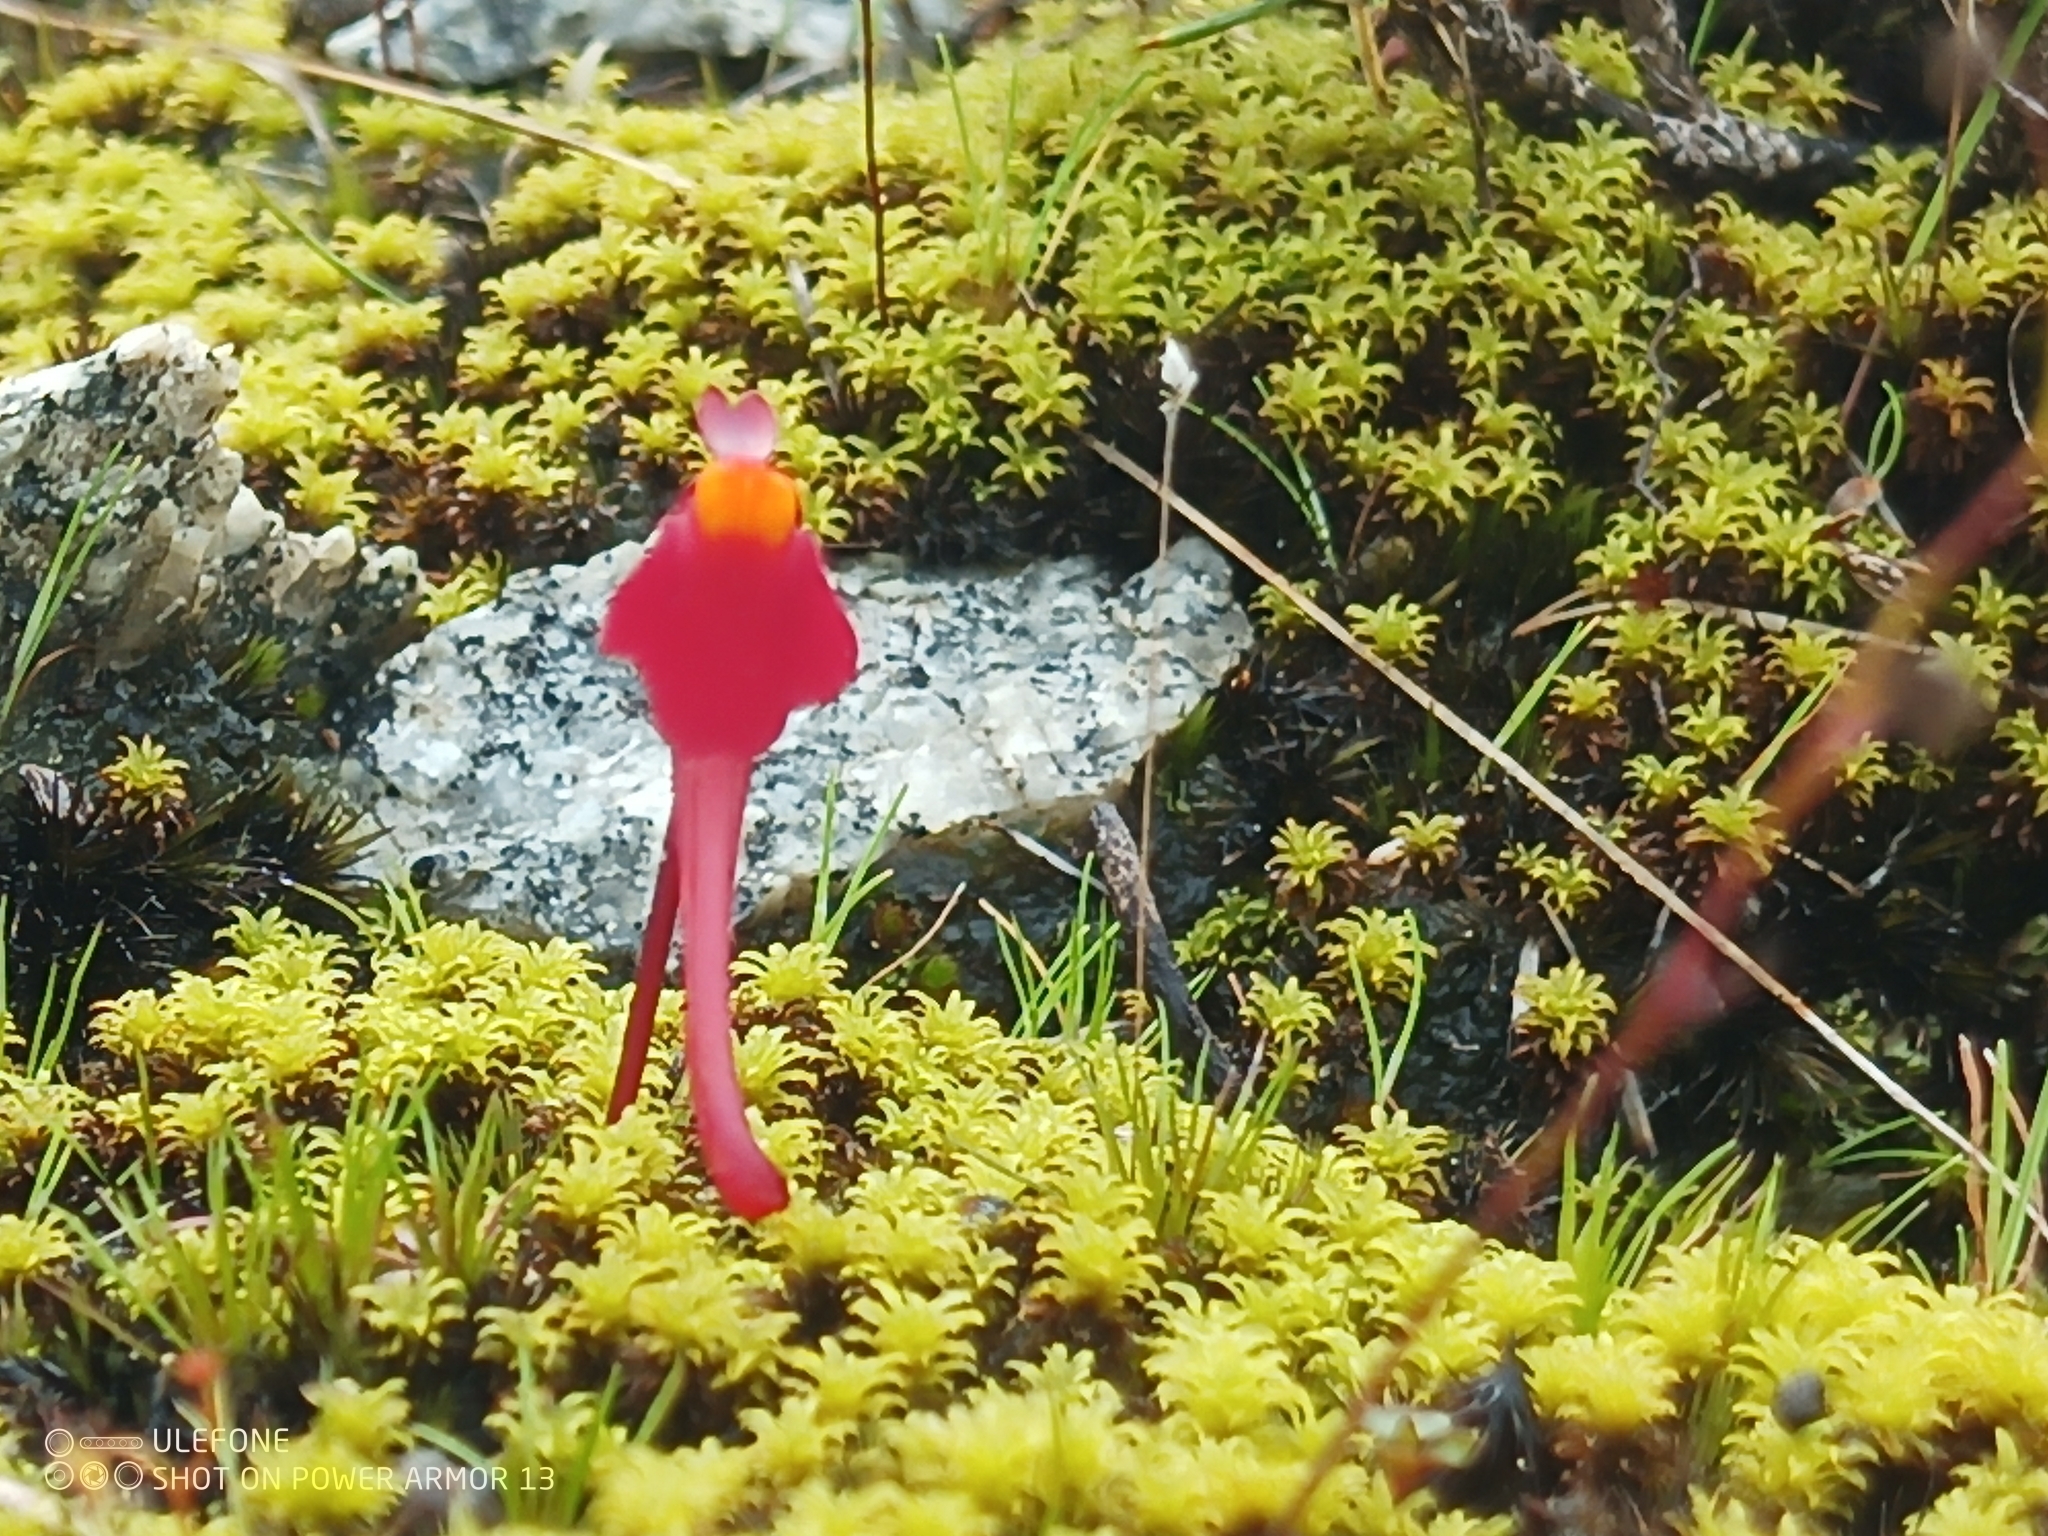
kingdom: Plantae
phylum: Tracheophyta
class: Magnoliopsida
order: Lamiales
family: Lentibulariaceae
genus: Utricularia
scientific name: Utricularia menziesii
